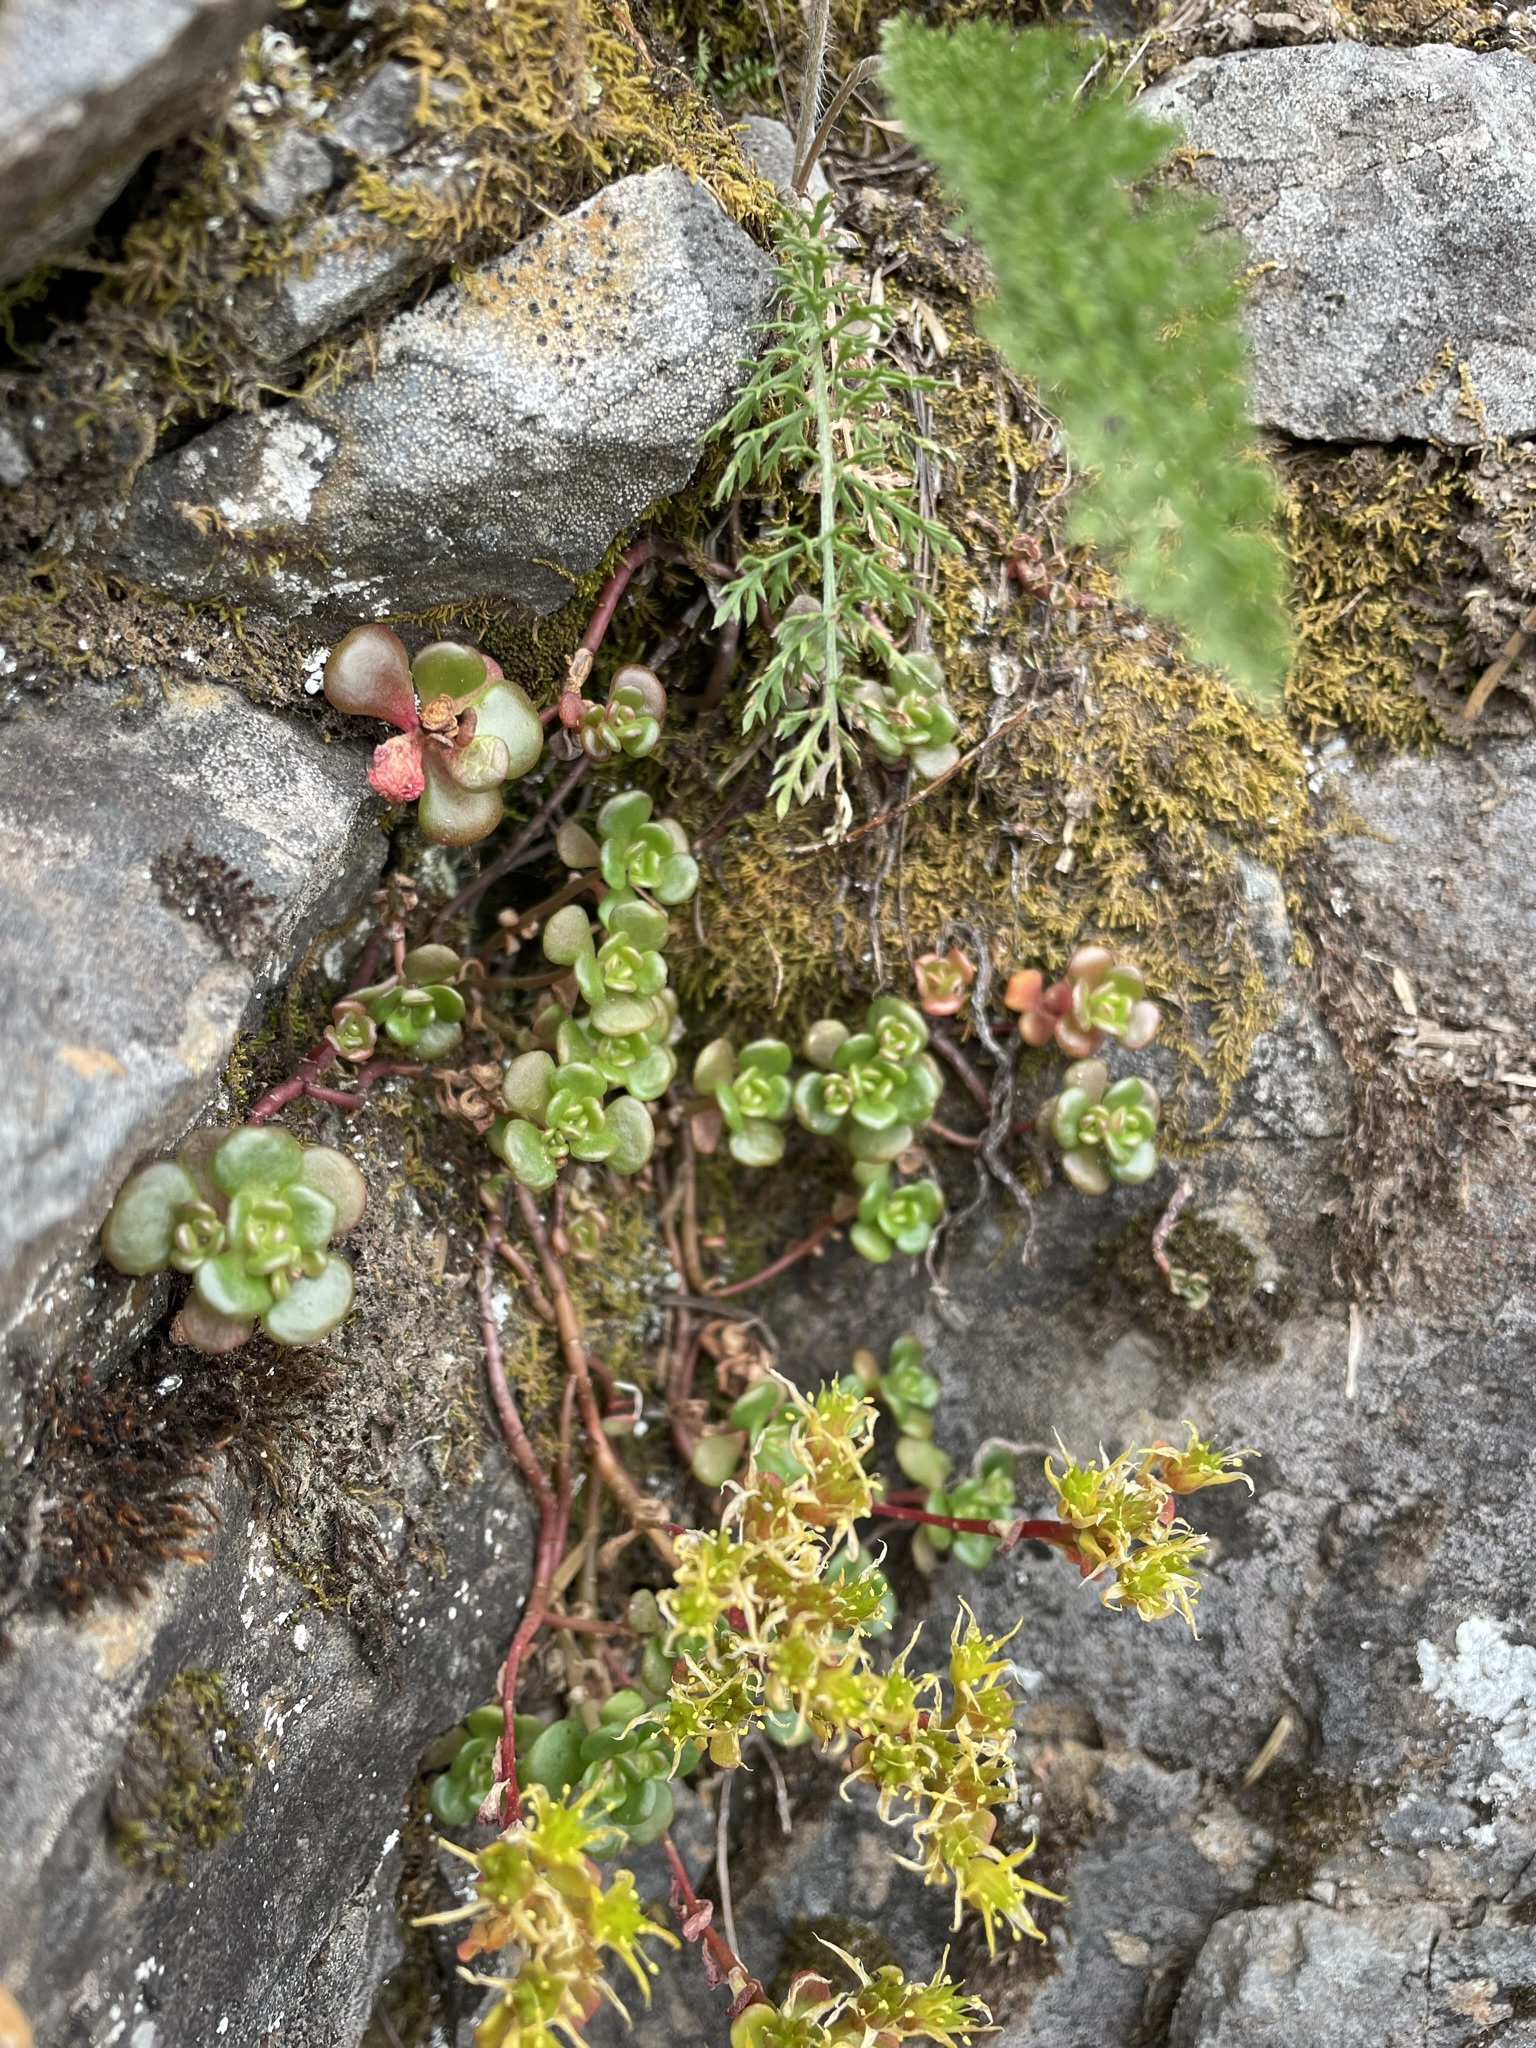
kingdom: Plantae
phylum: Tracheophyta
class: Magnoliopsida
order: Saxifragales
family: Crassulaceae
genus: Sedum
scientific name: Sedum oreganum
